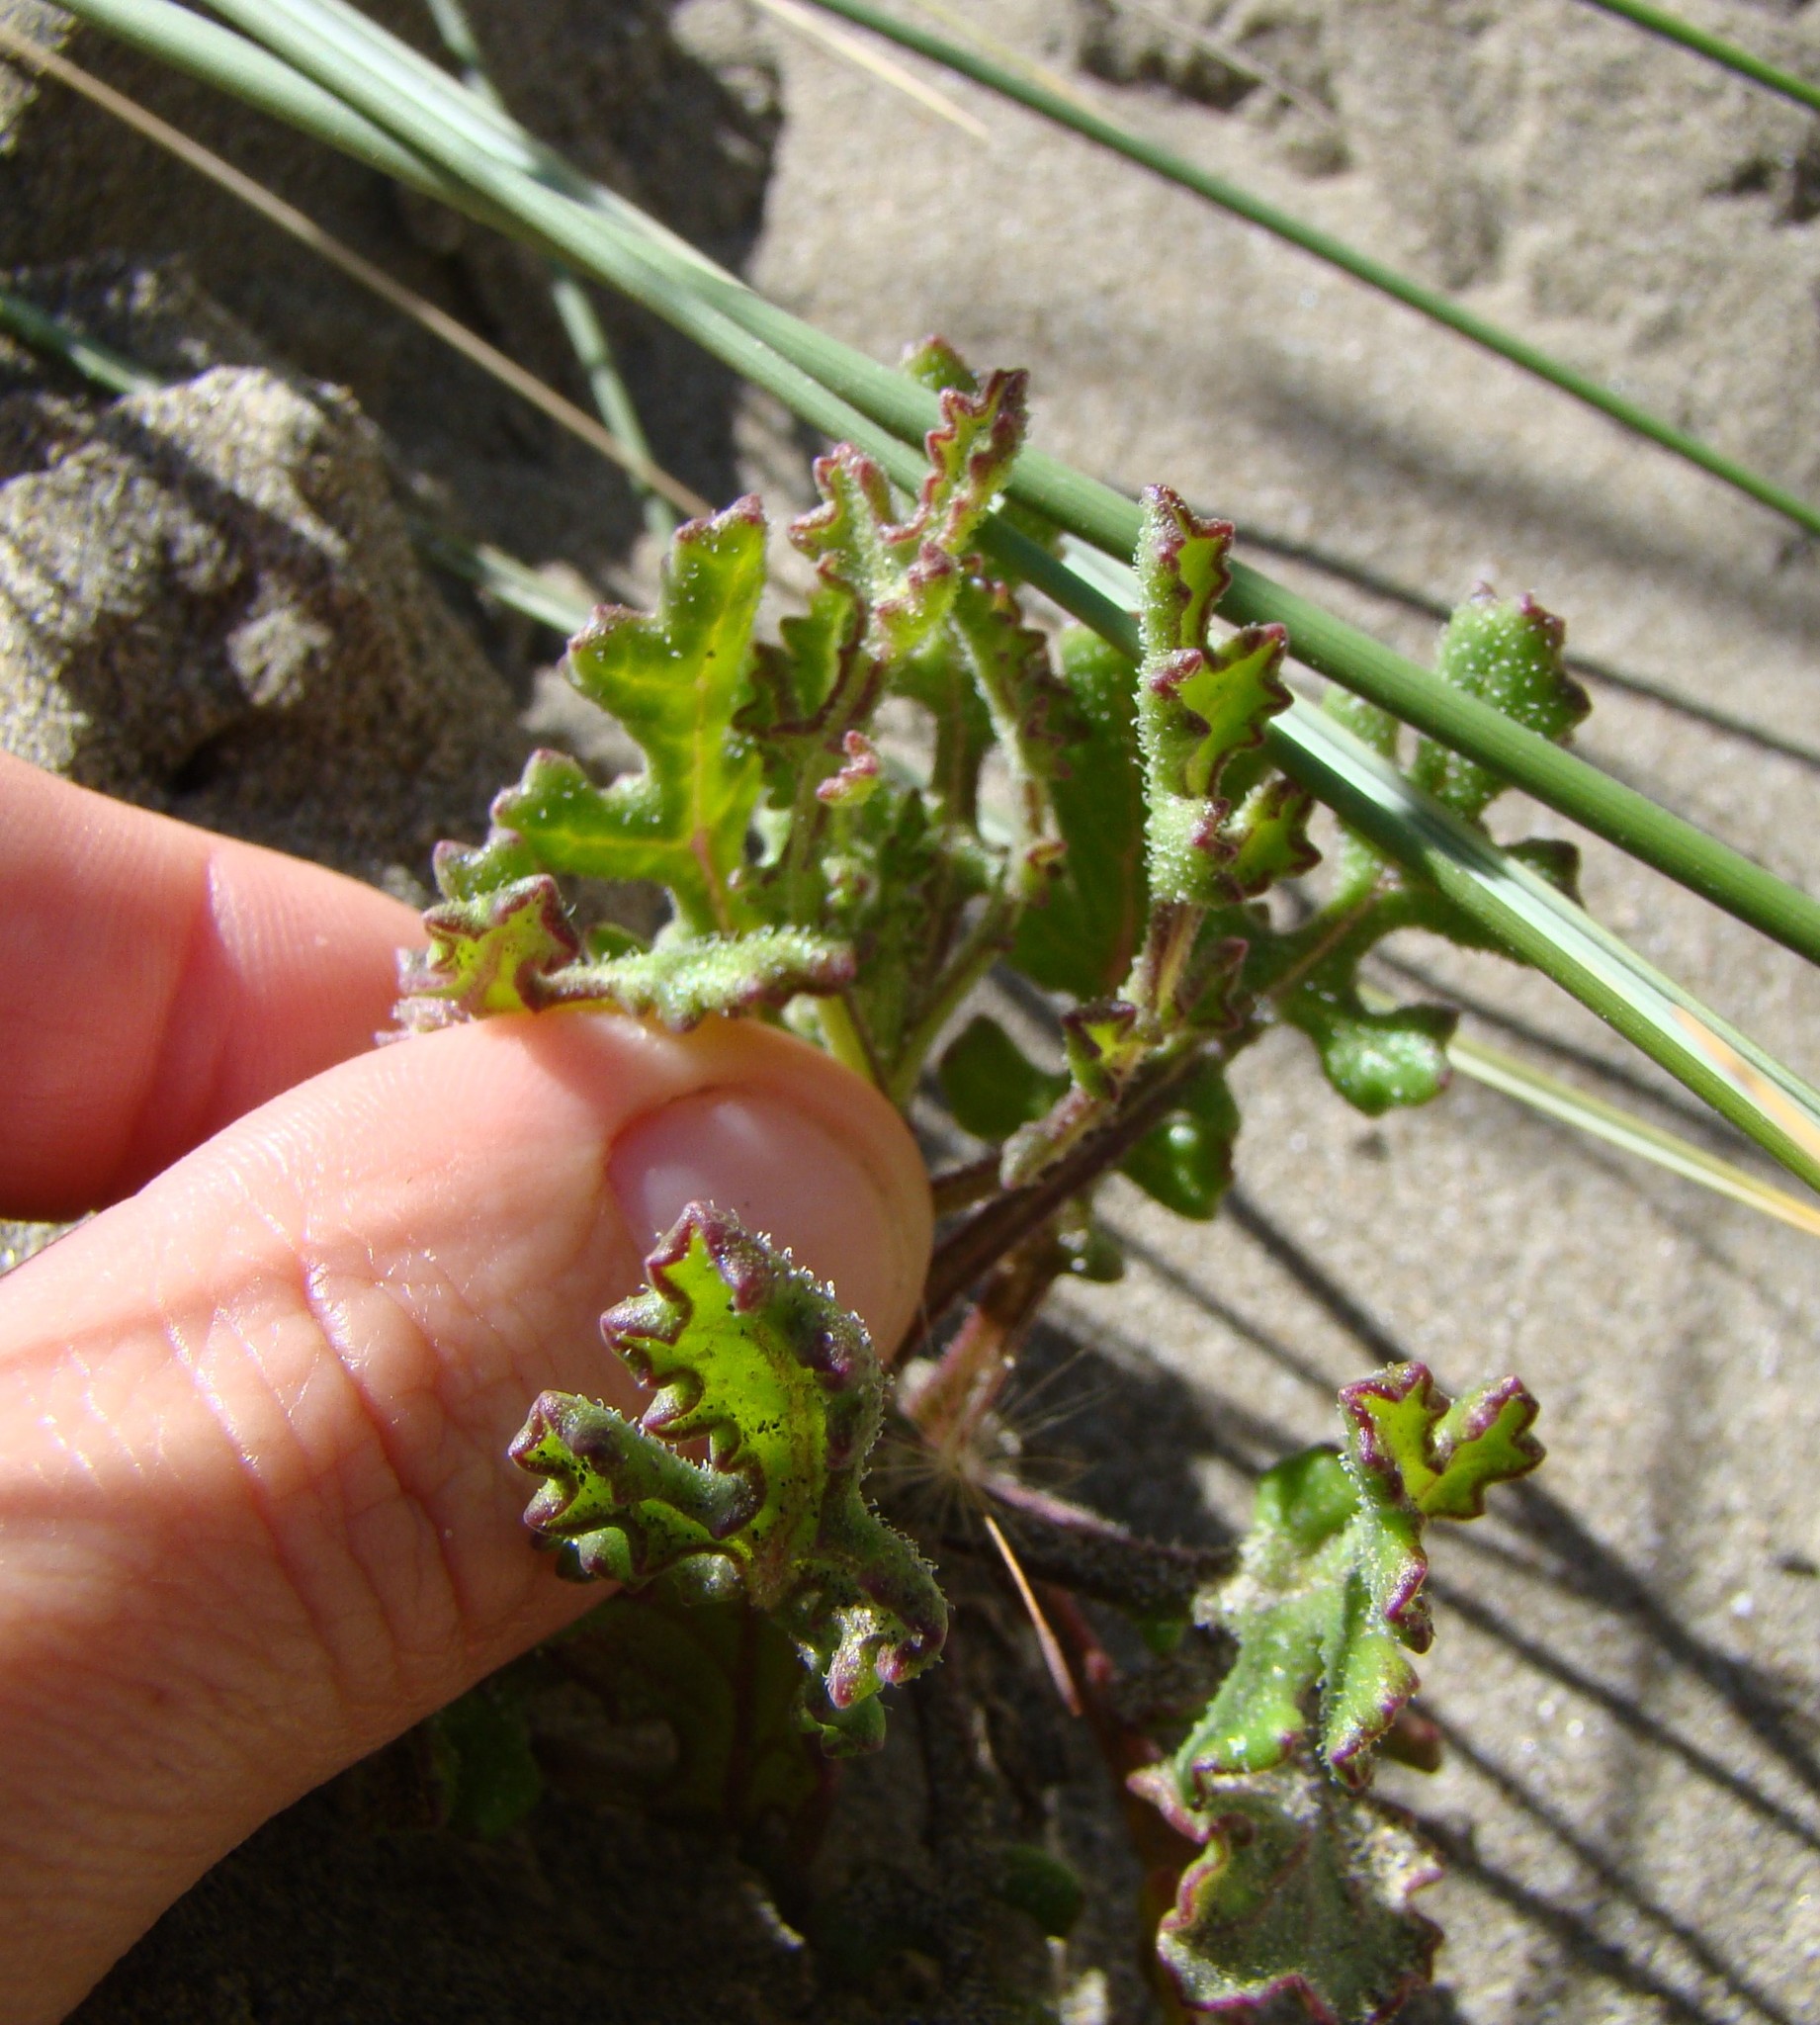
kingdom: Plantae
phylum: Tracheophyta
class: Magnoliopsida
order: Asterales
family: Asteraceae
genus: Senecio
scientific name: Senecio elegans
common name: Purple groundsel
